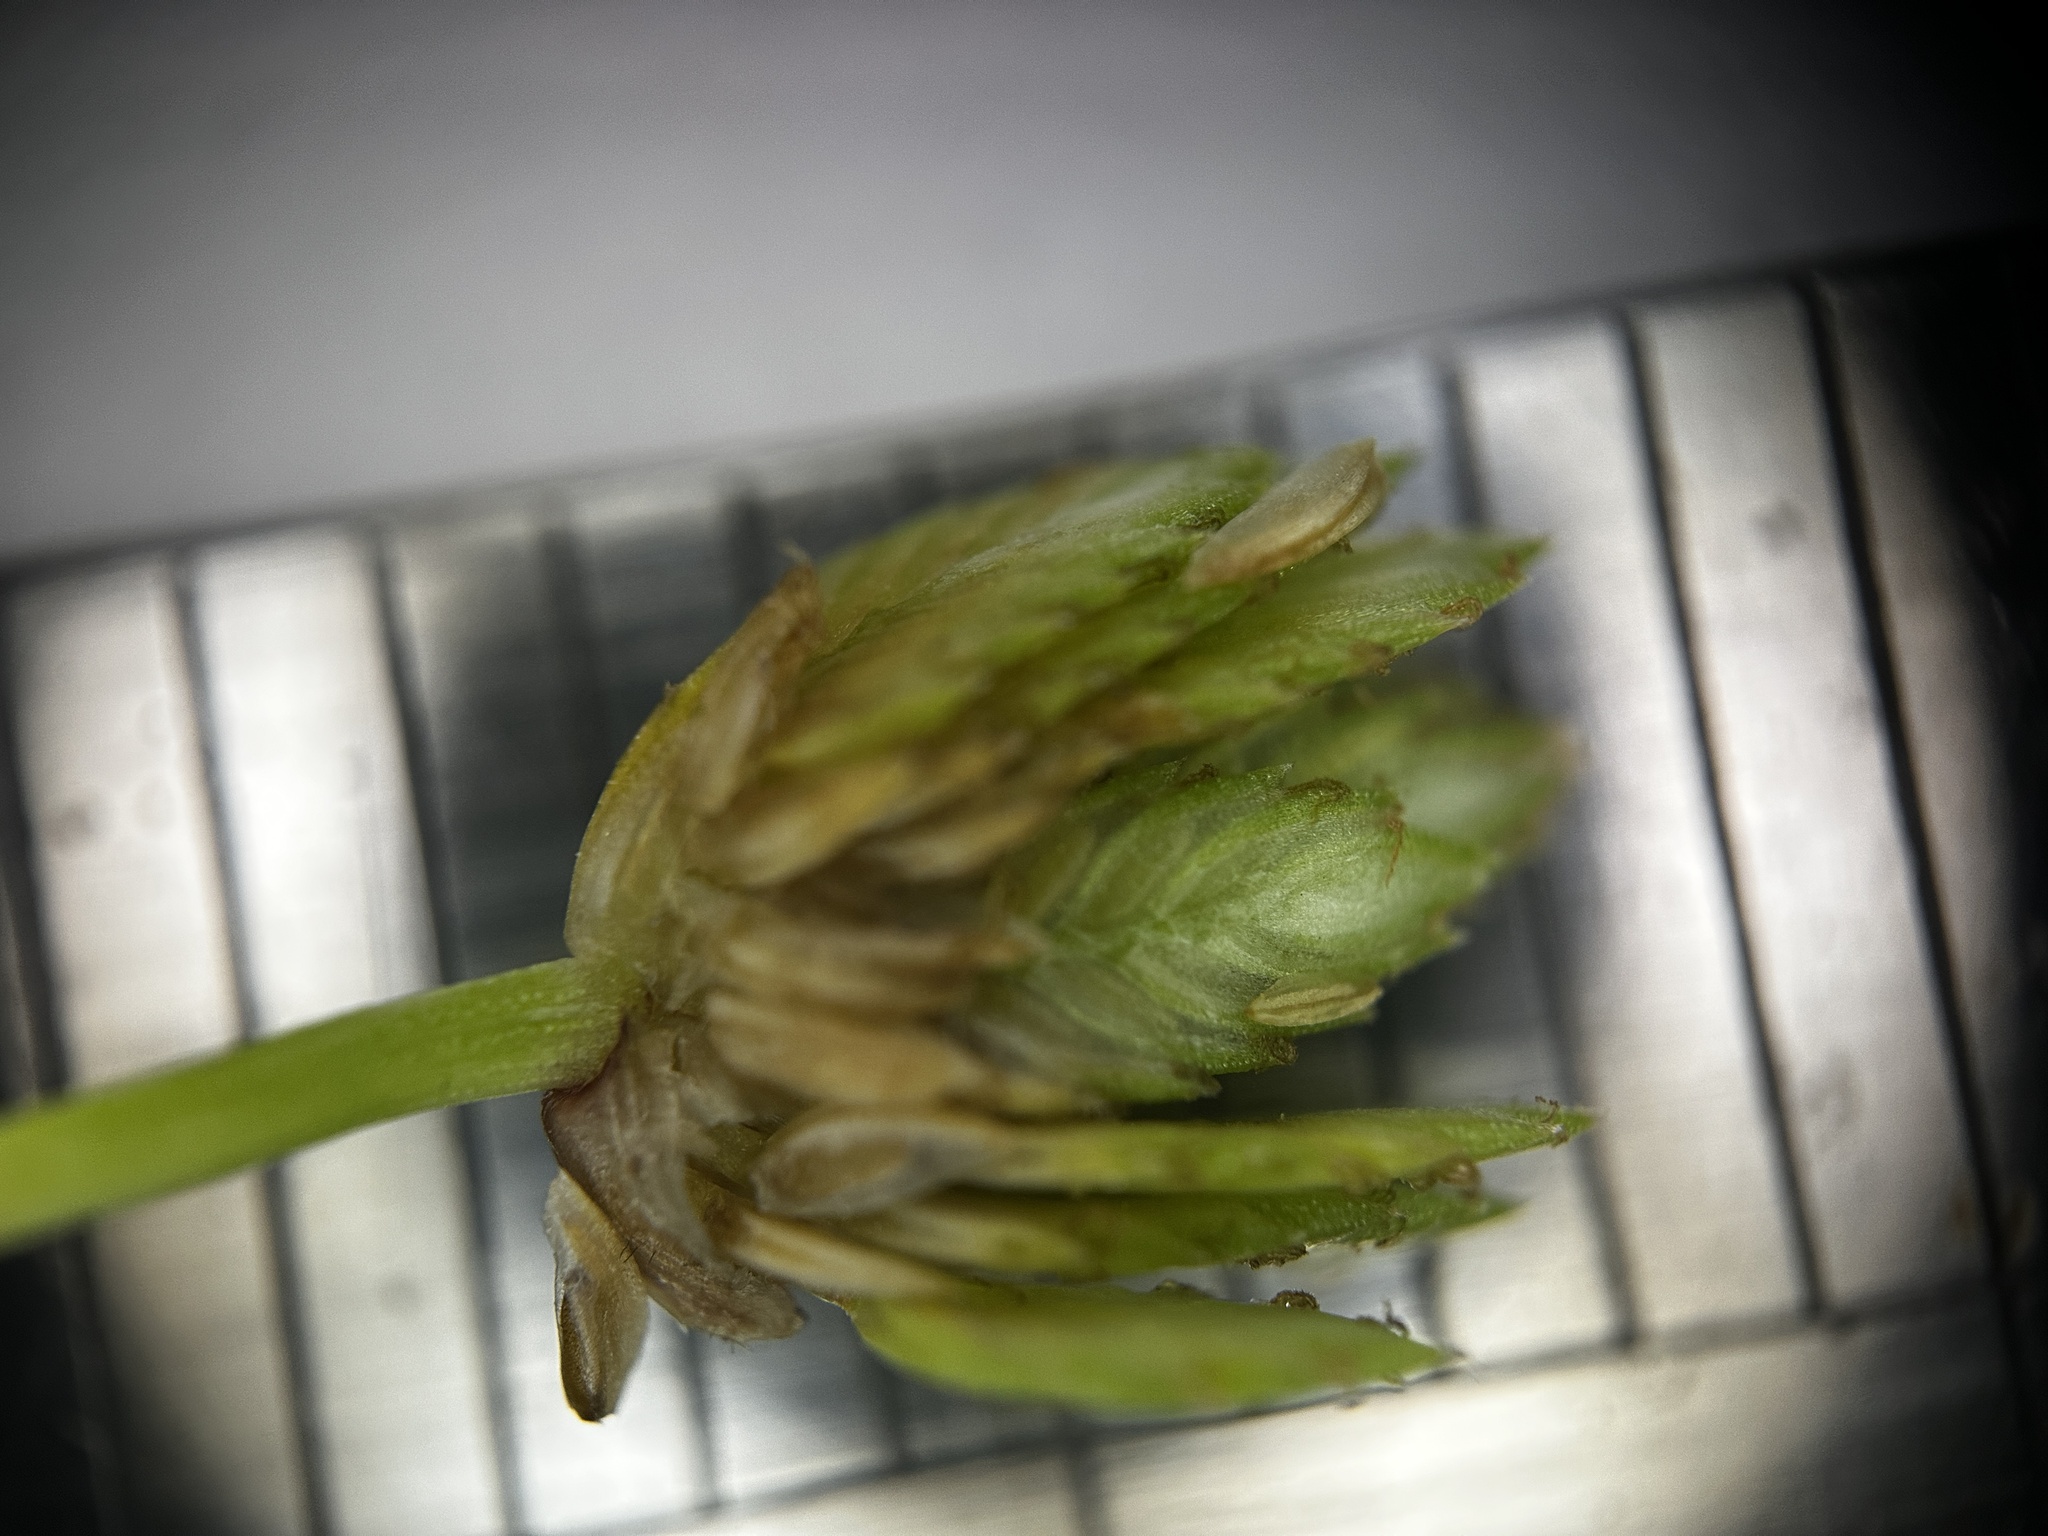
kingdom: Plantae
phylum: Tracheophyta
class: Liliopsida
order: Poales
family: Cyperaceae
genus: Cyperus
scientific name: Cyperus surinamensis
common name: Tropical flat sedge
